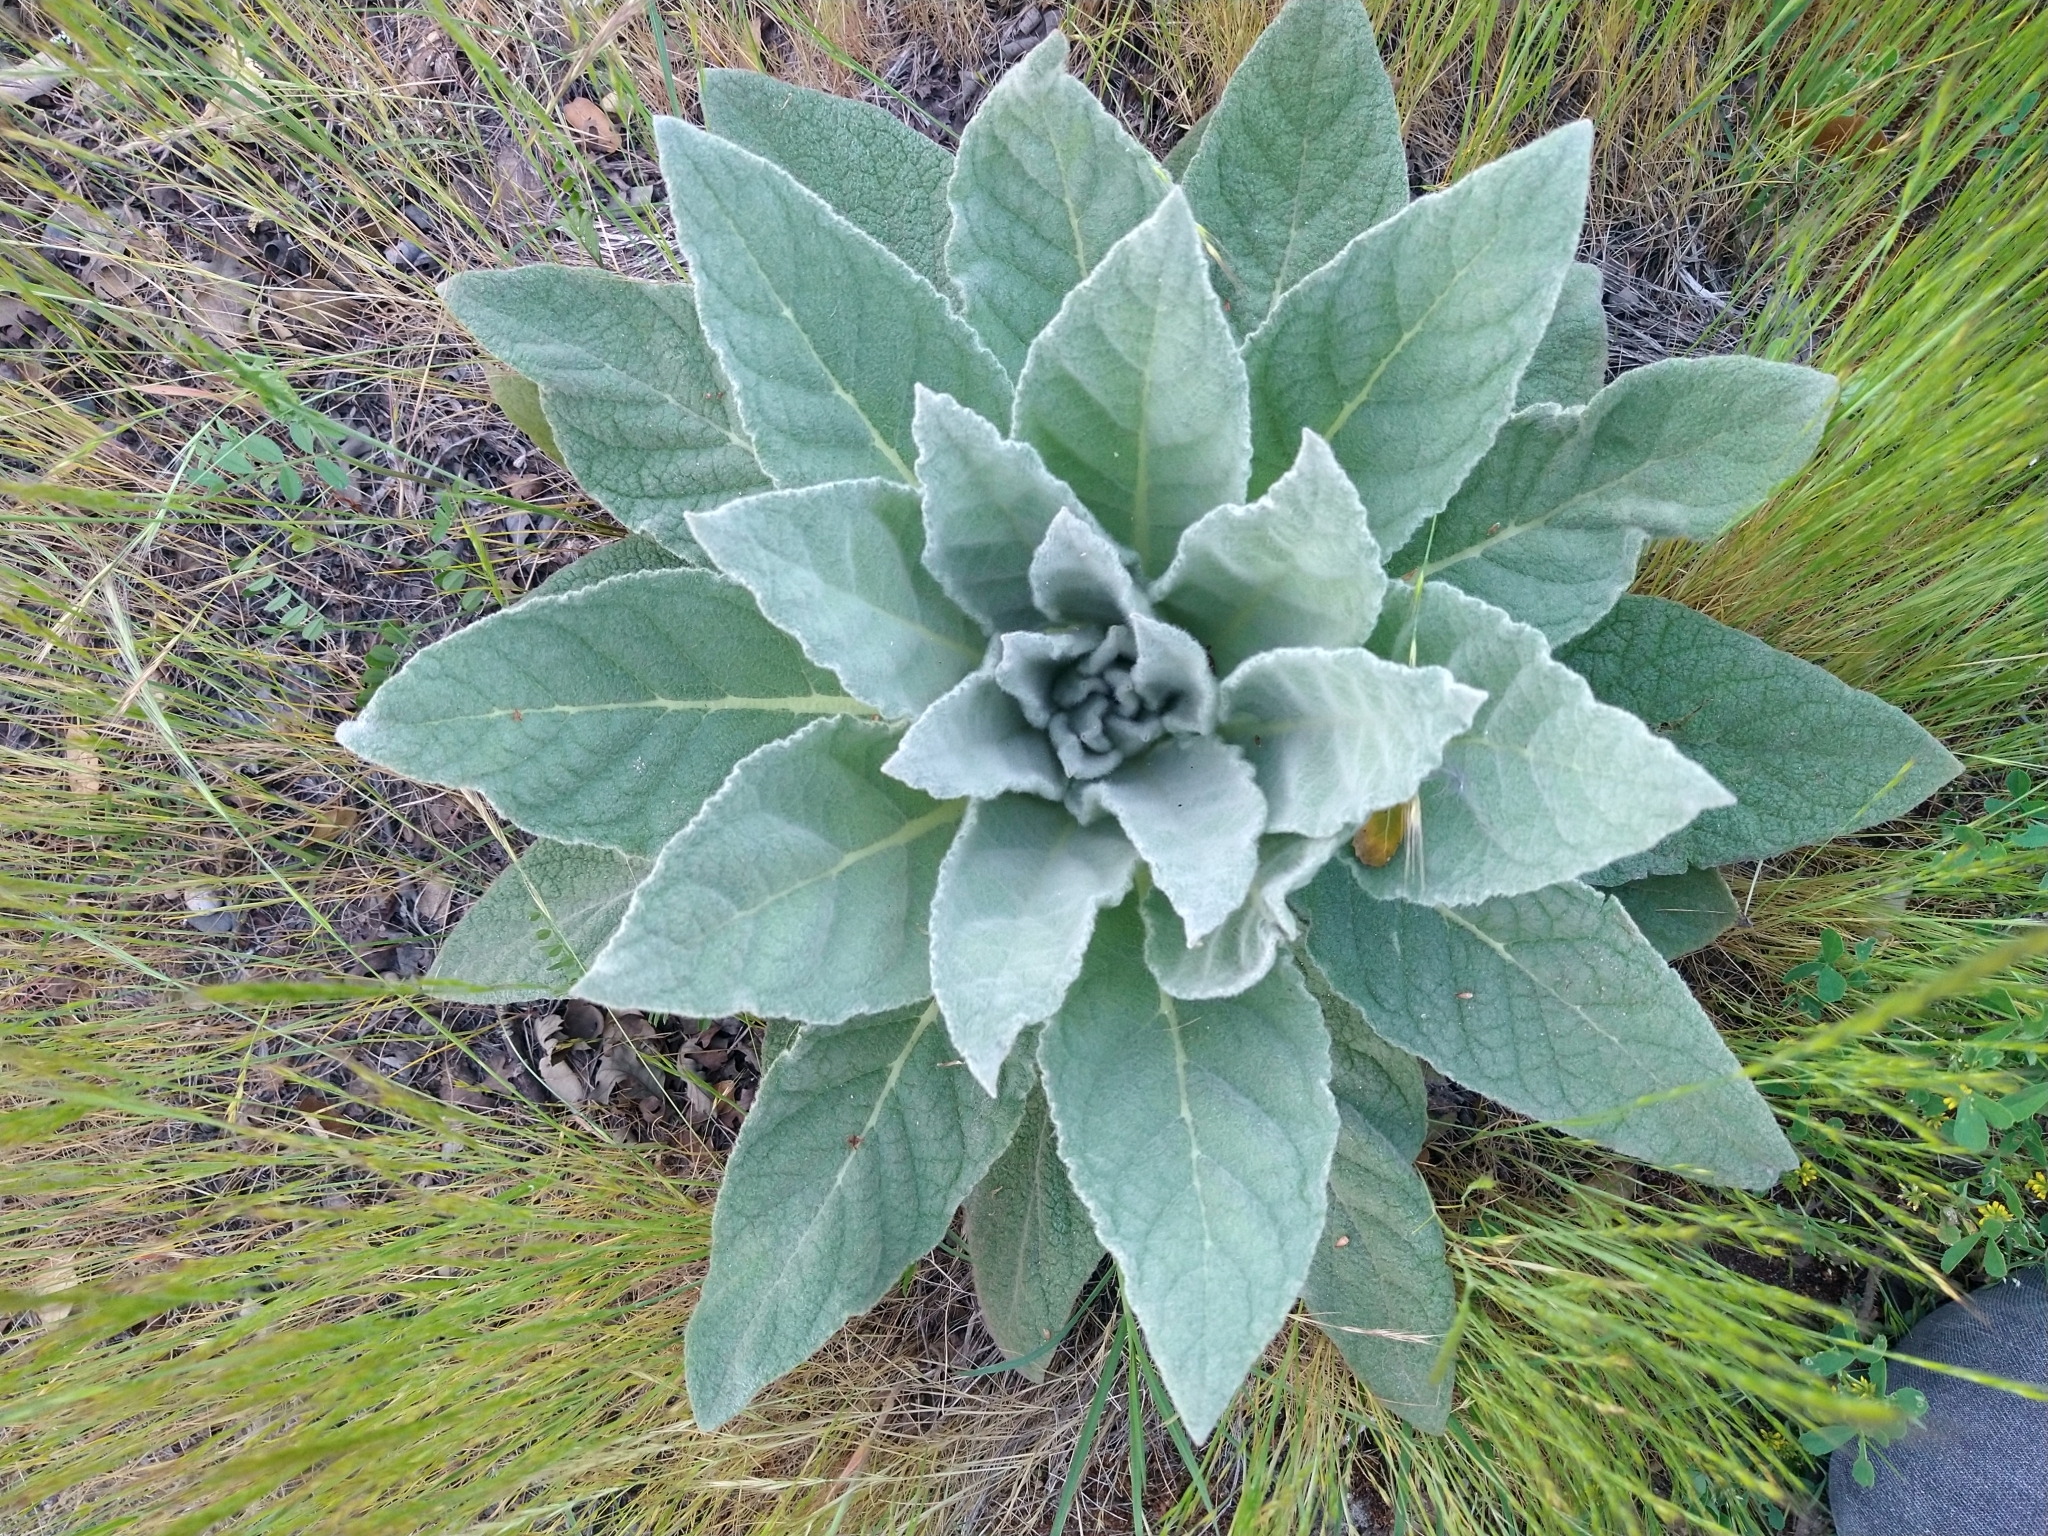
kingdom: Plantae
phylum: Tracheophyta
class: Magnoliopsida
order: Lamiales
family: Scrophulariaceae
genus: Verbascum
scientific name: Verbascum thapsus
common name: Common mullein
